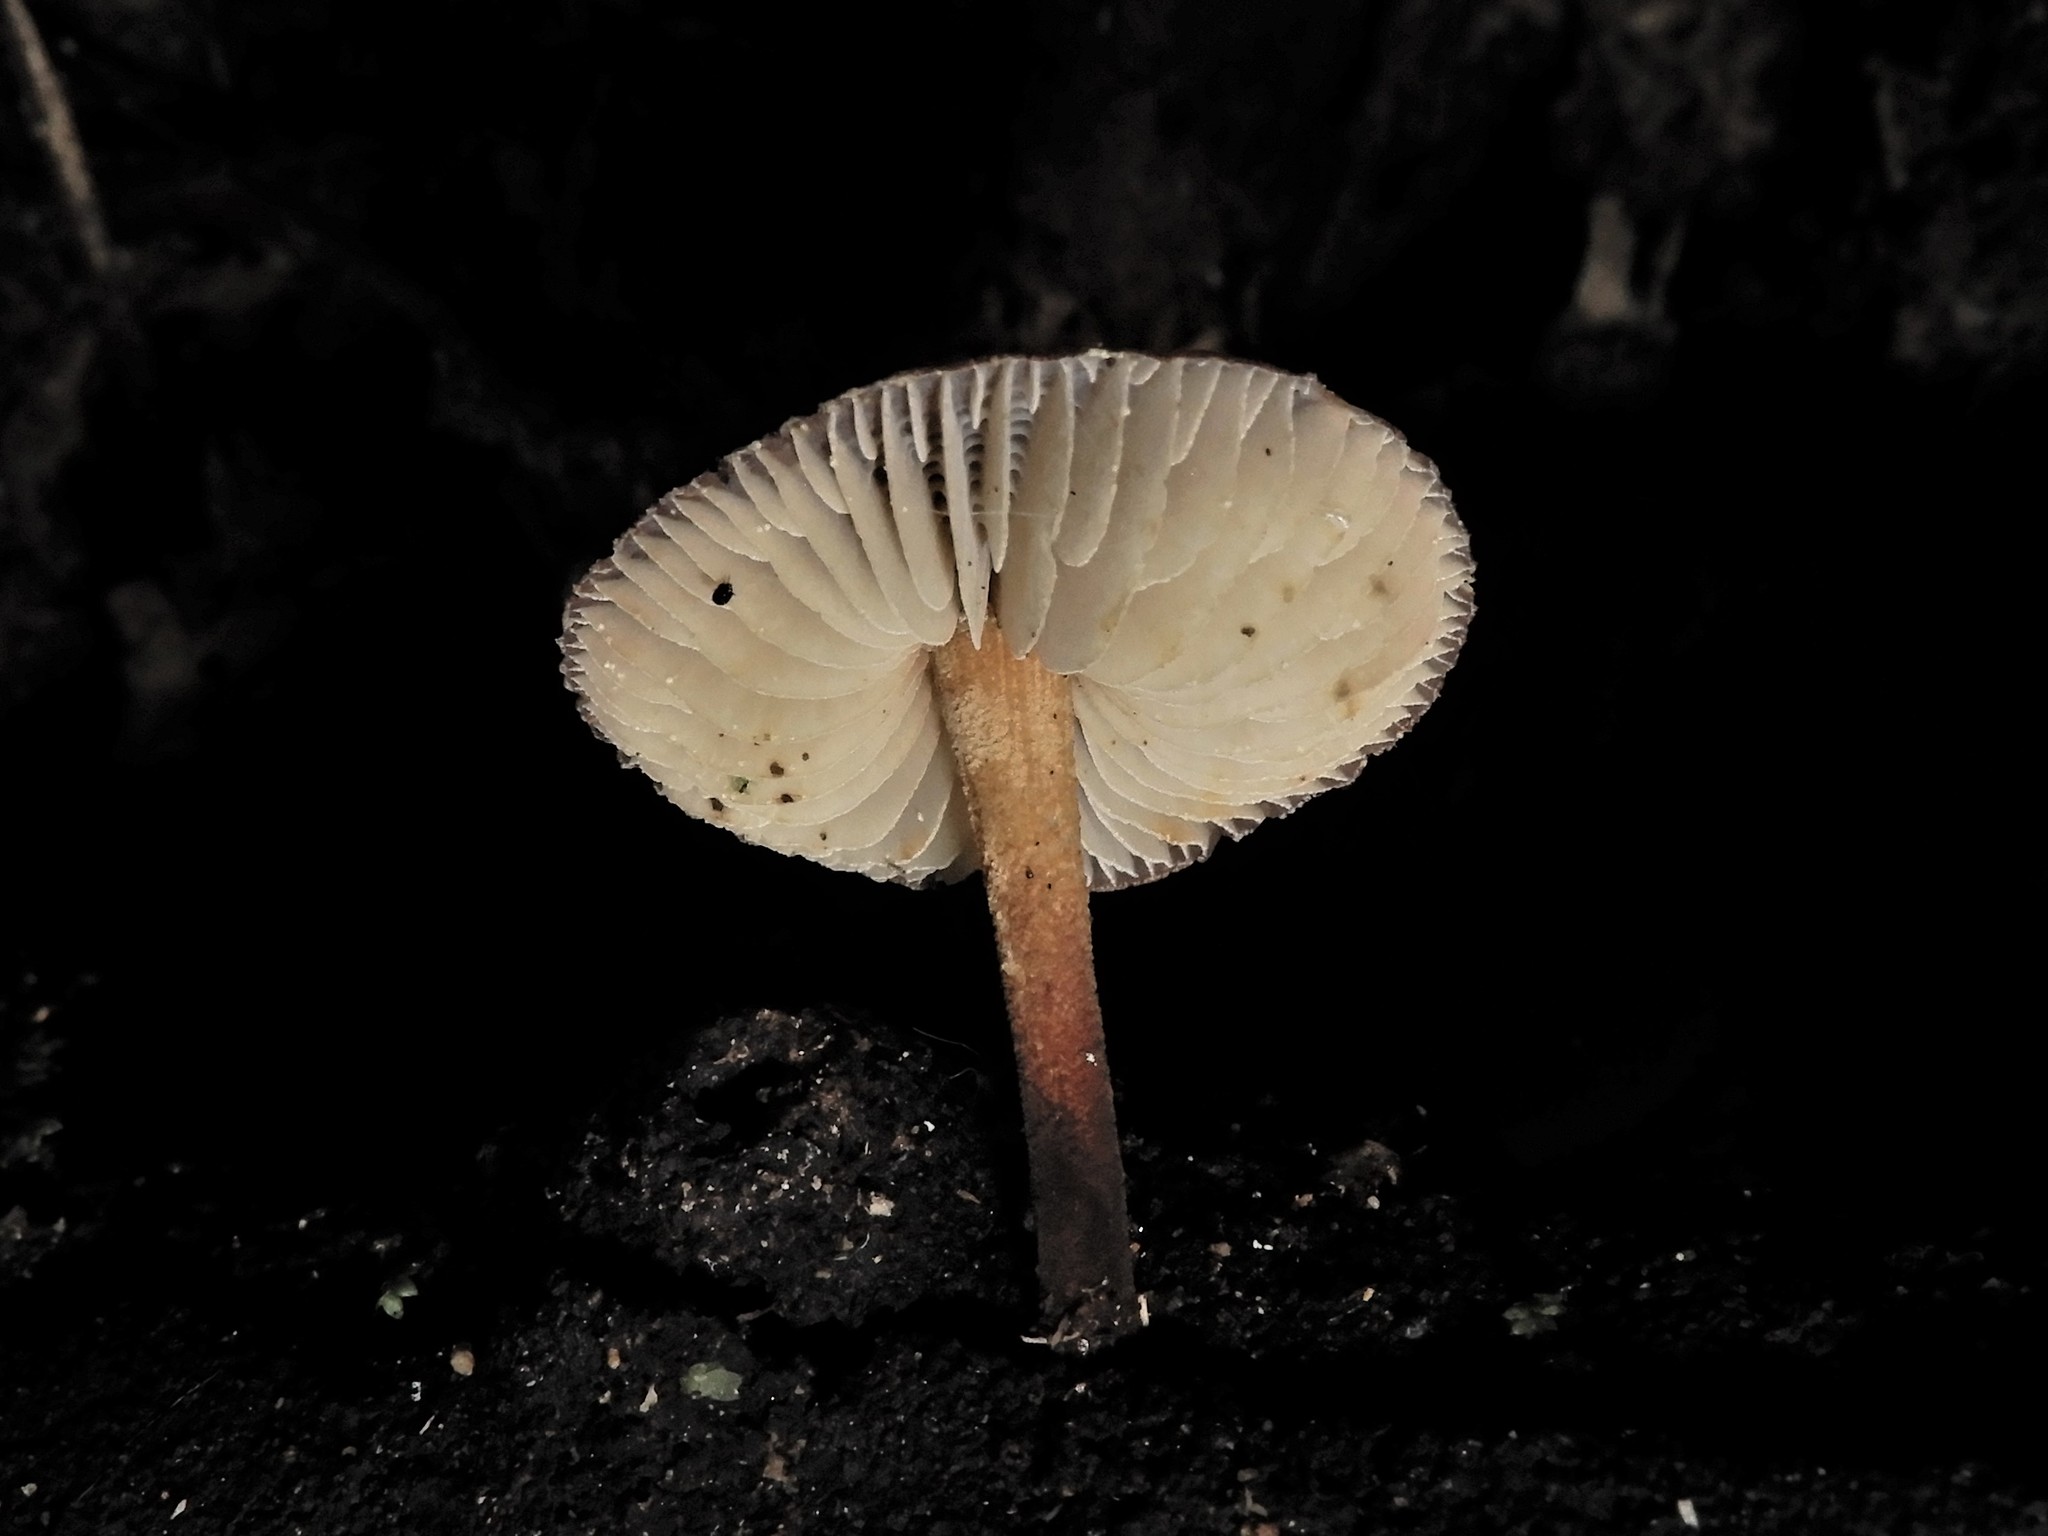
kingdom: Fungi
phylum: Basidiomycota
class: Agaricomycetes
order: Agaricales
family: Mycenaceae
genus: Heimiomyces
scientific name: Heimiomyces atrofulvus
